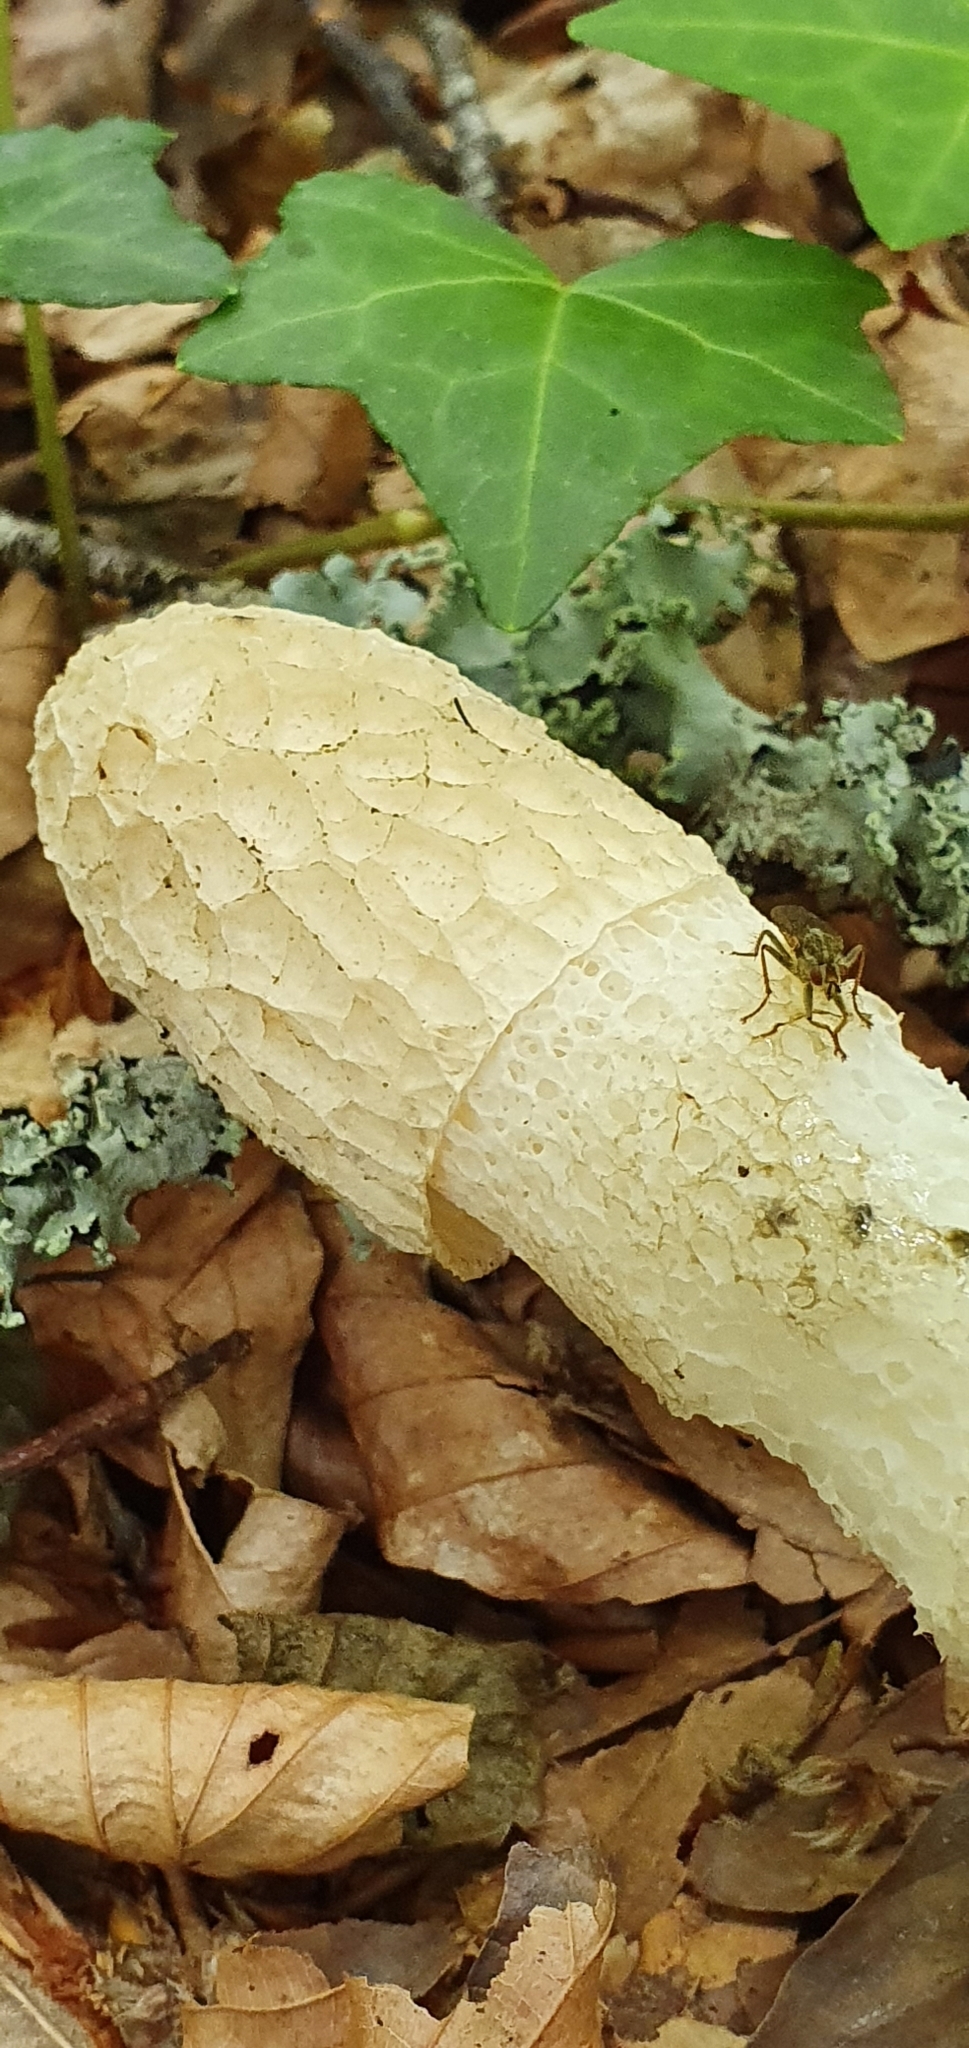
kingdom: Fungi
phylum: Basidiomycota
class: Agaricomycetes
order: Phallales
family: Phallaceae
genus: Phallus
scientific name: Phallus impudicus
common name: Common stinkhorn
